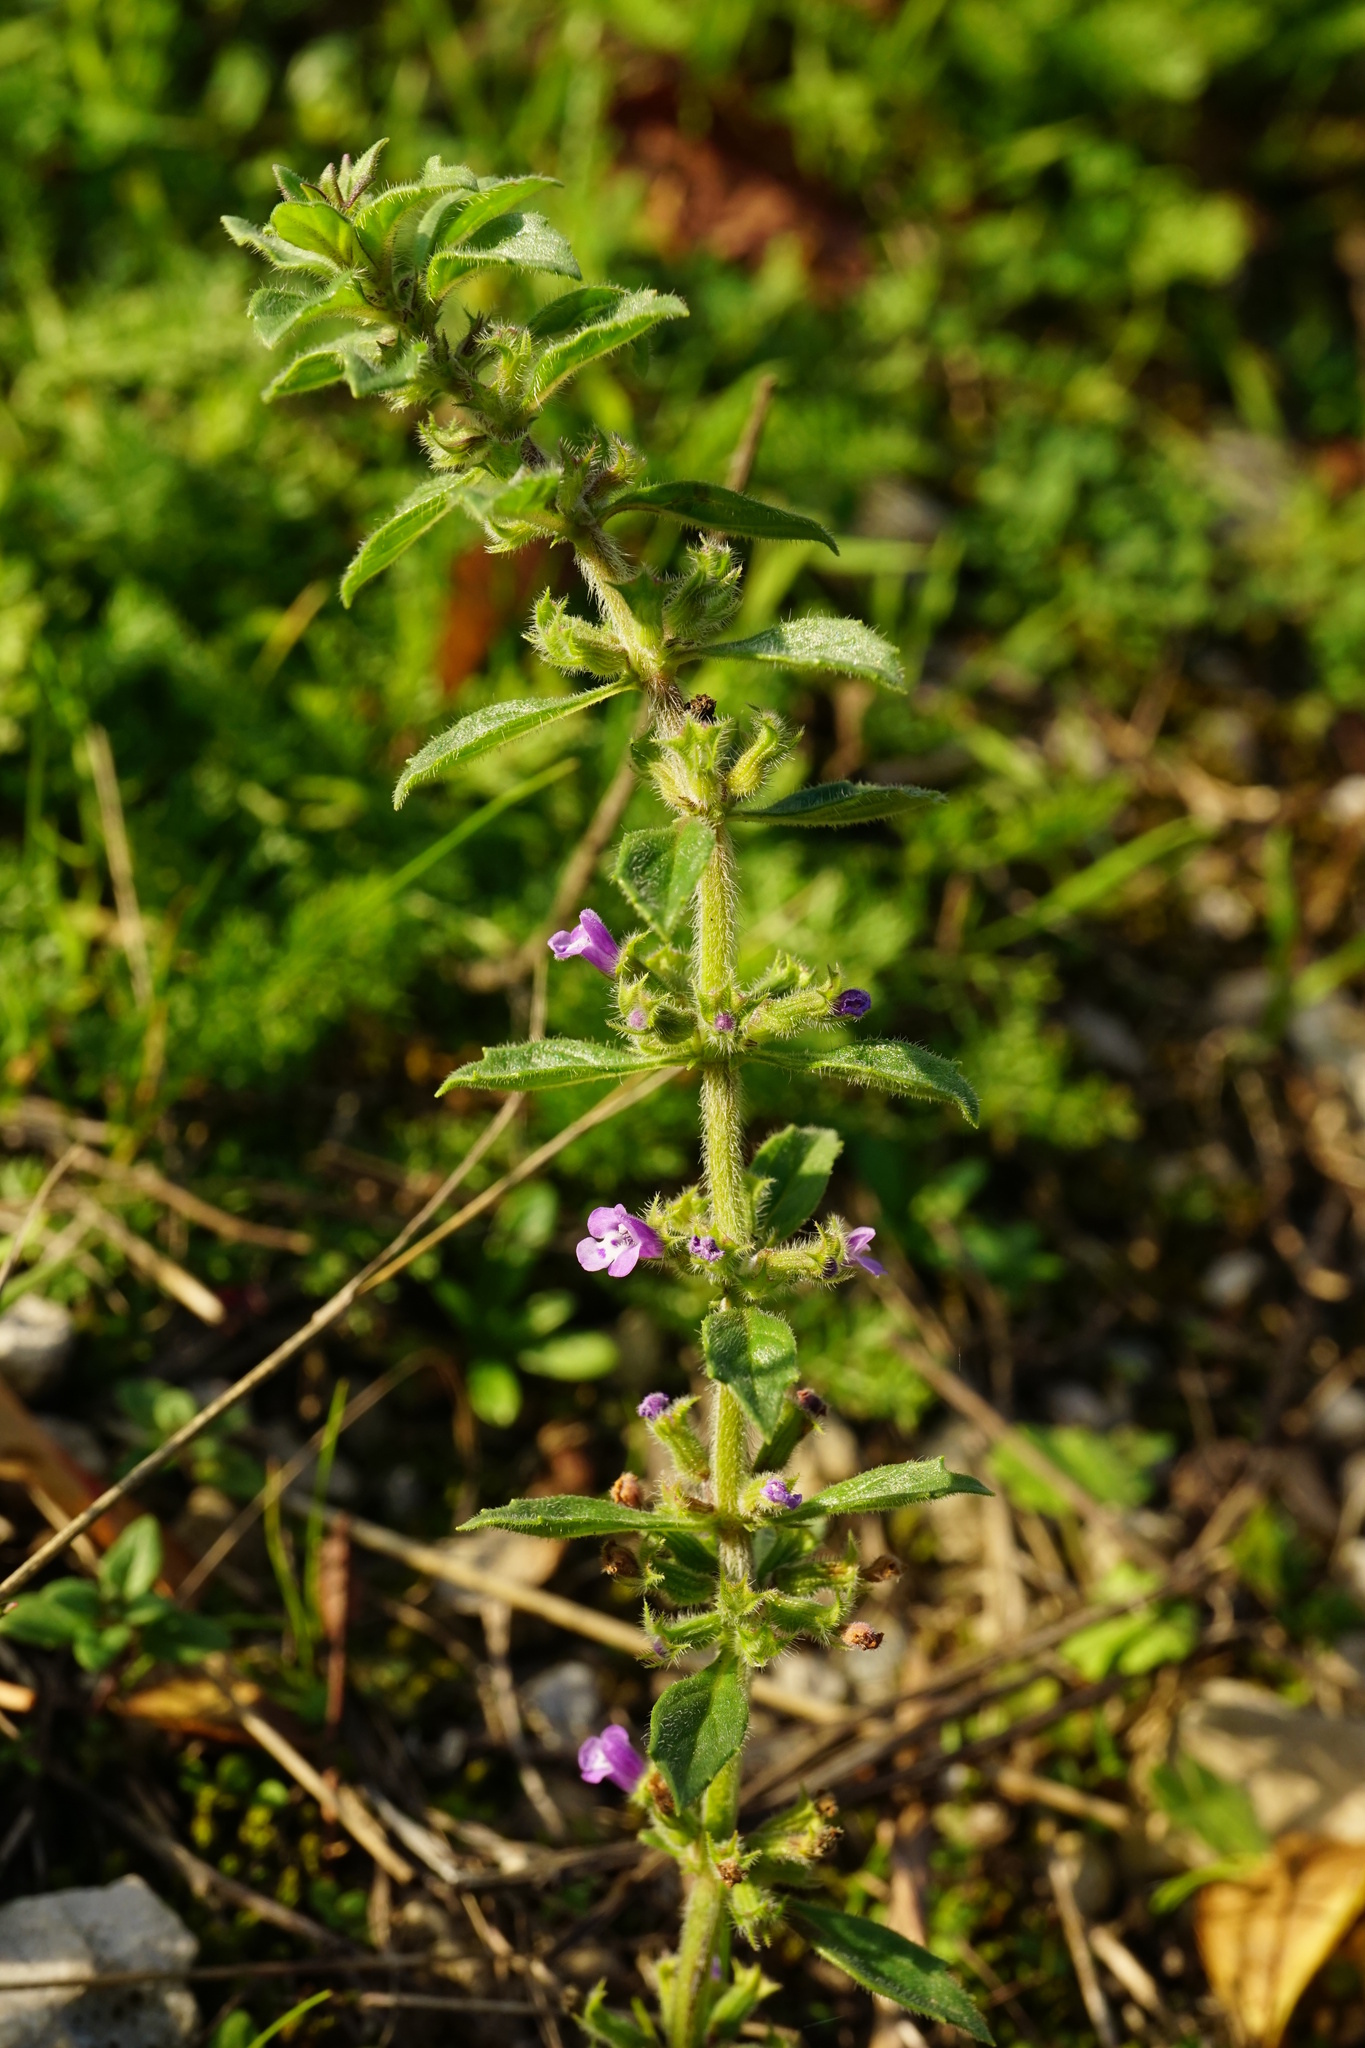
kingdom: Plantae
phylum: Tracheophyta
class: Magnoliopsida
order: Lamiales
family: Lamiaceae
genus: Clinopodium
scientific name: Clinopodium acinos
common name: Basil thyme
